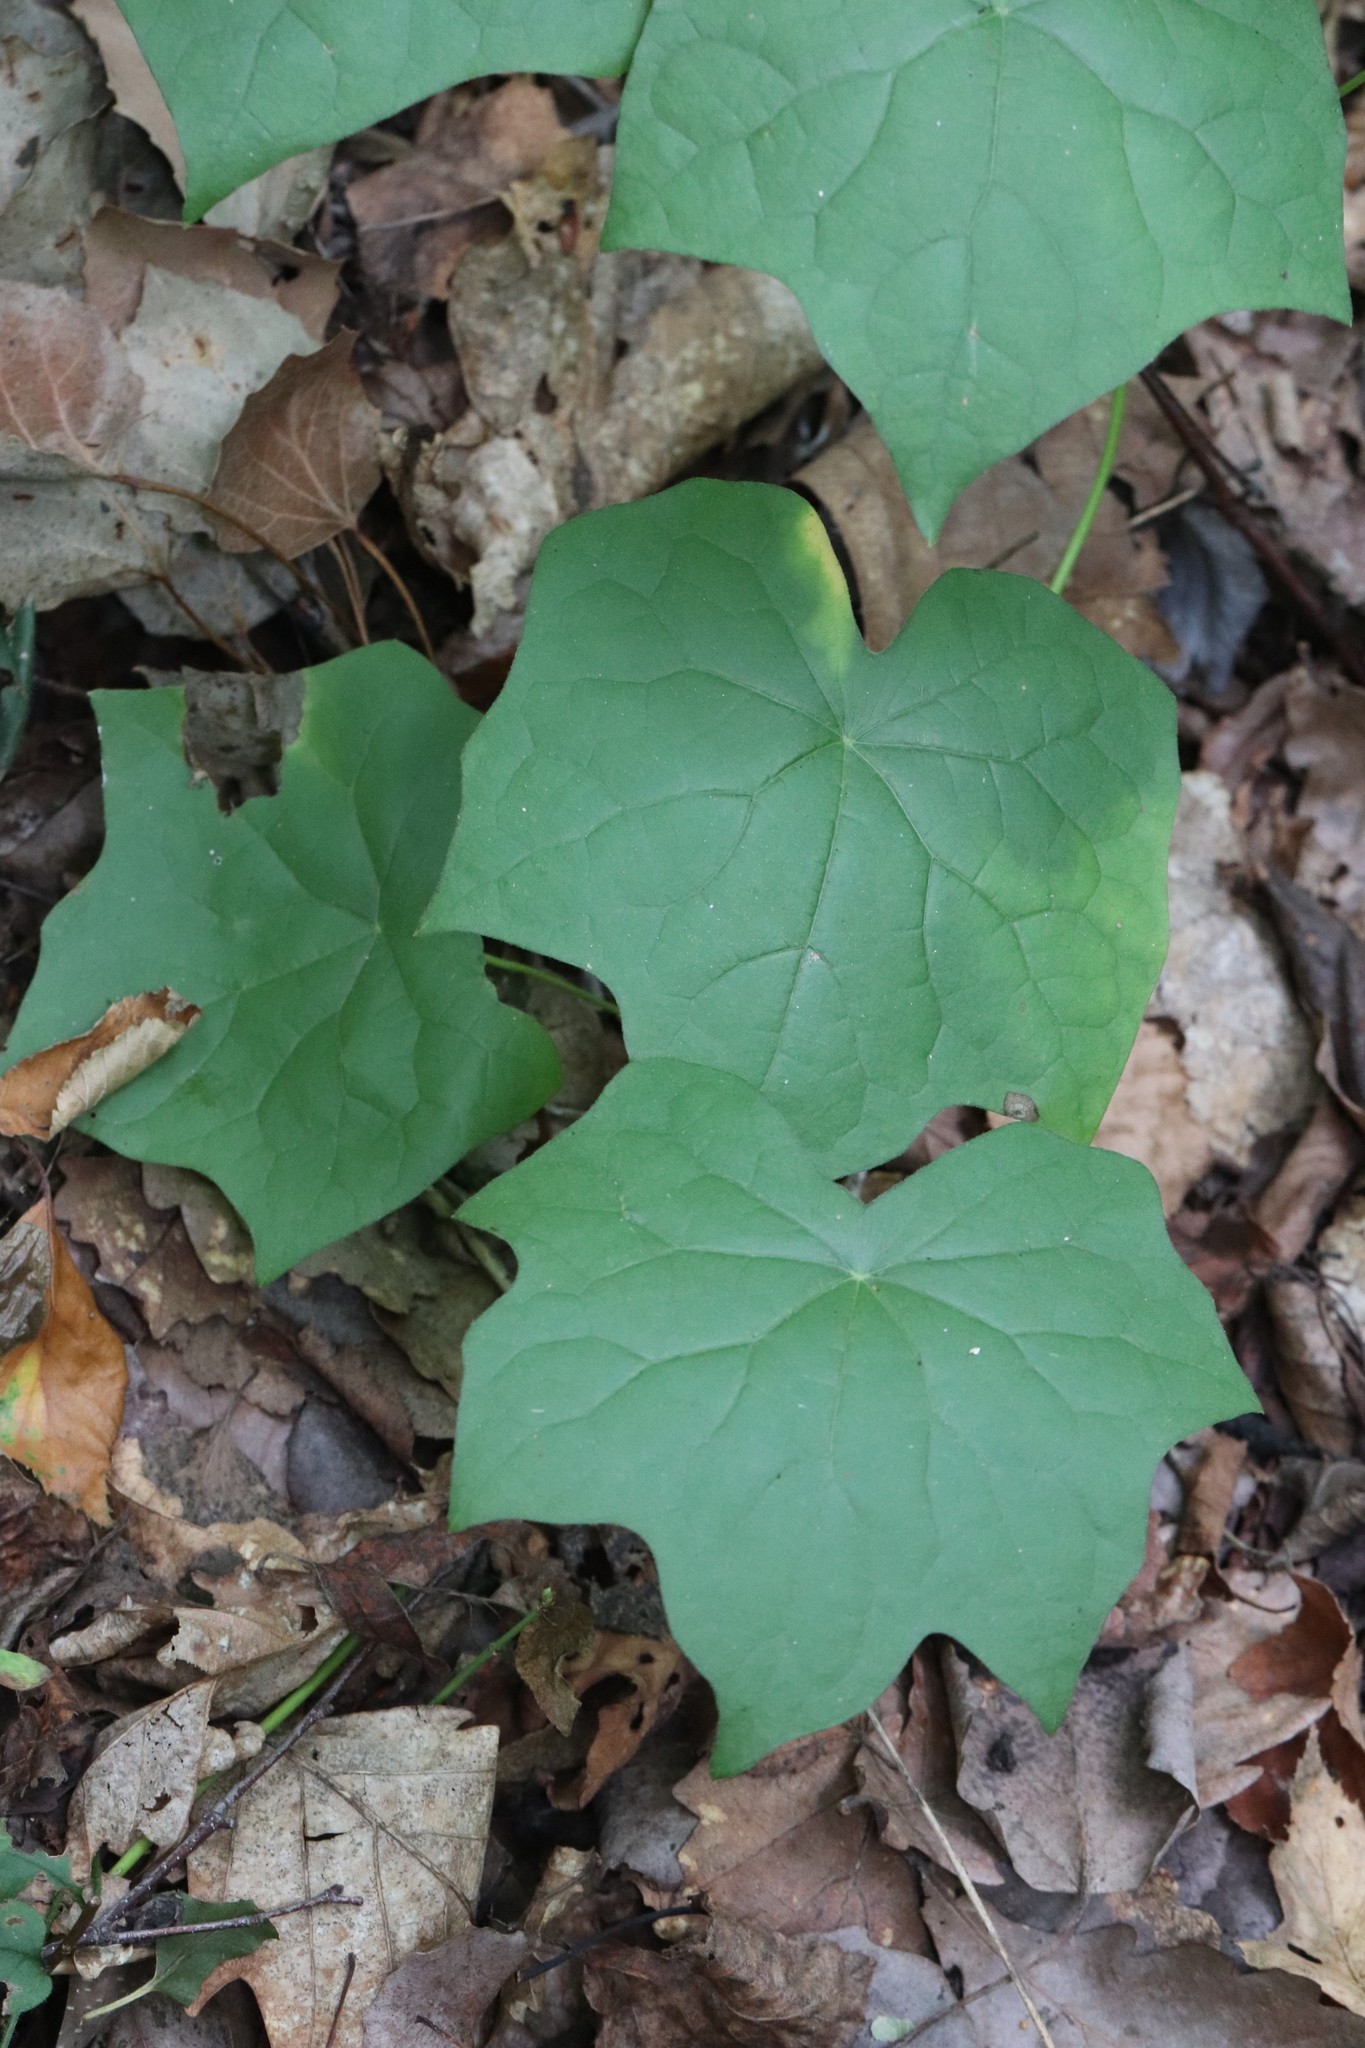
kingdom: Plantae
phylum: Tracheophyta
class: Magnoliopsida
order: Ranunculales
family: Menispermaceae
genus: Menispermum
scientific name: Menispermum dauricum
